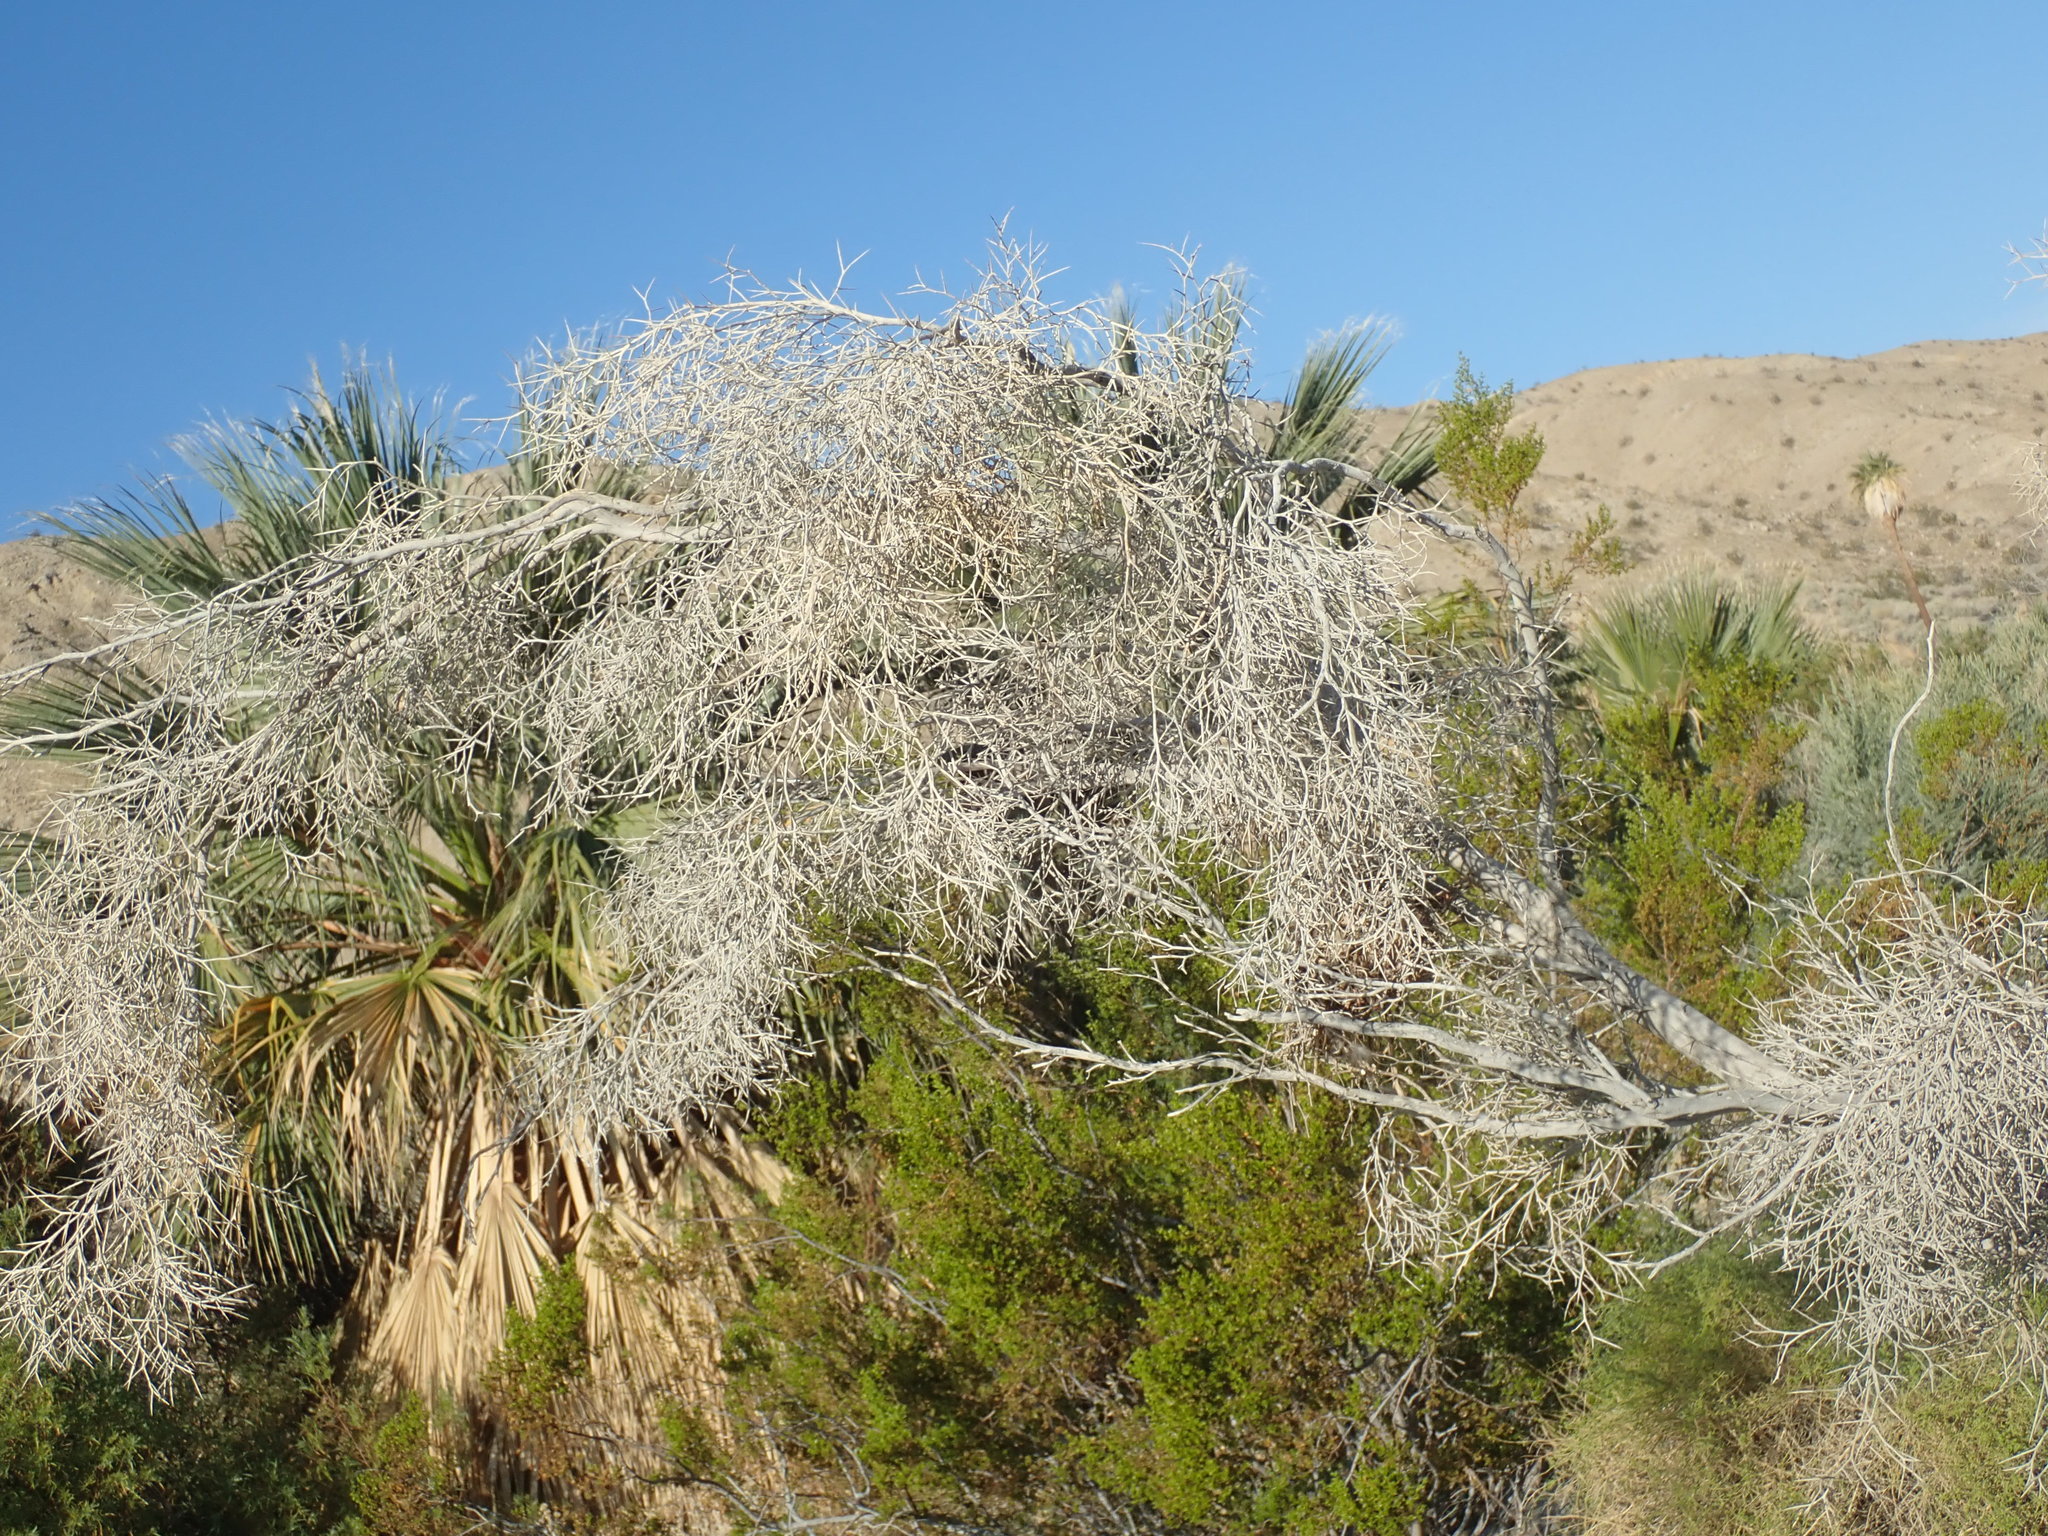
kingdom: Plantae
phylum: Tracheophyta
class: Magnoliopsida
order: Fabales
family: Fabaceae
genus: Psorothamnus
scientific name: Psorothamnus spinosus
